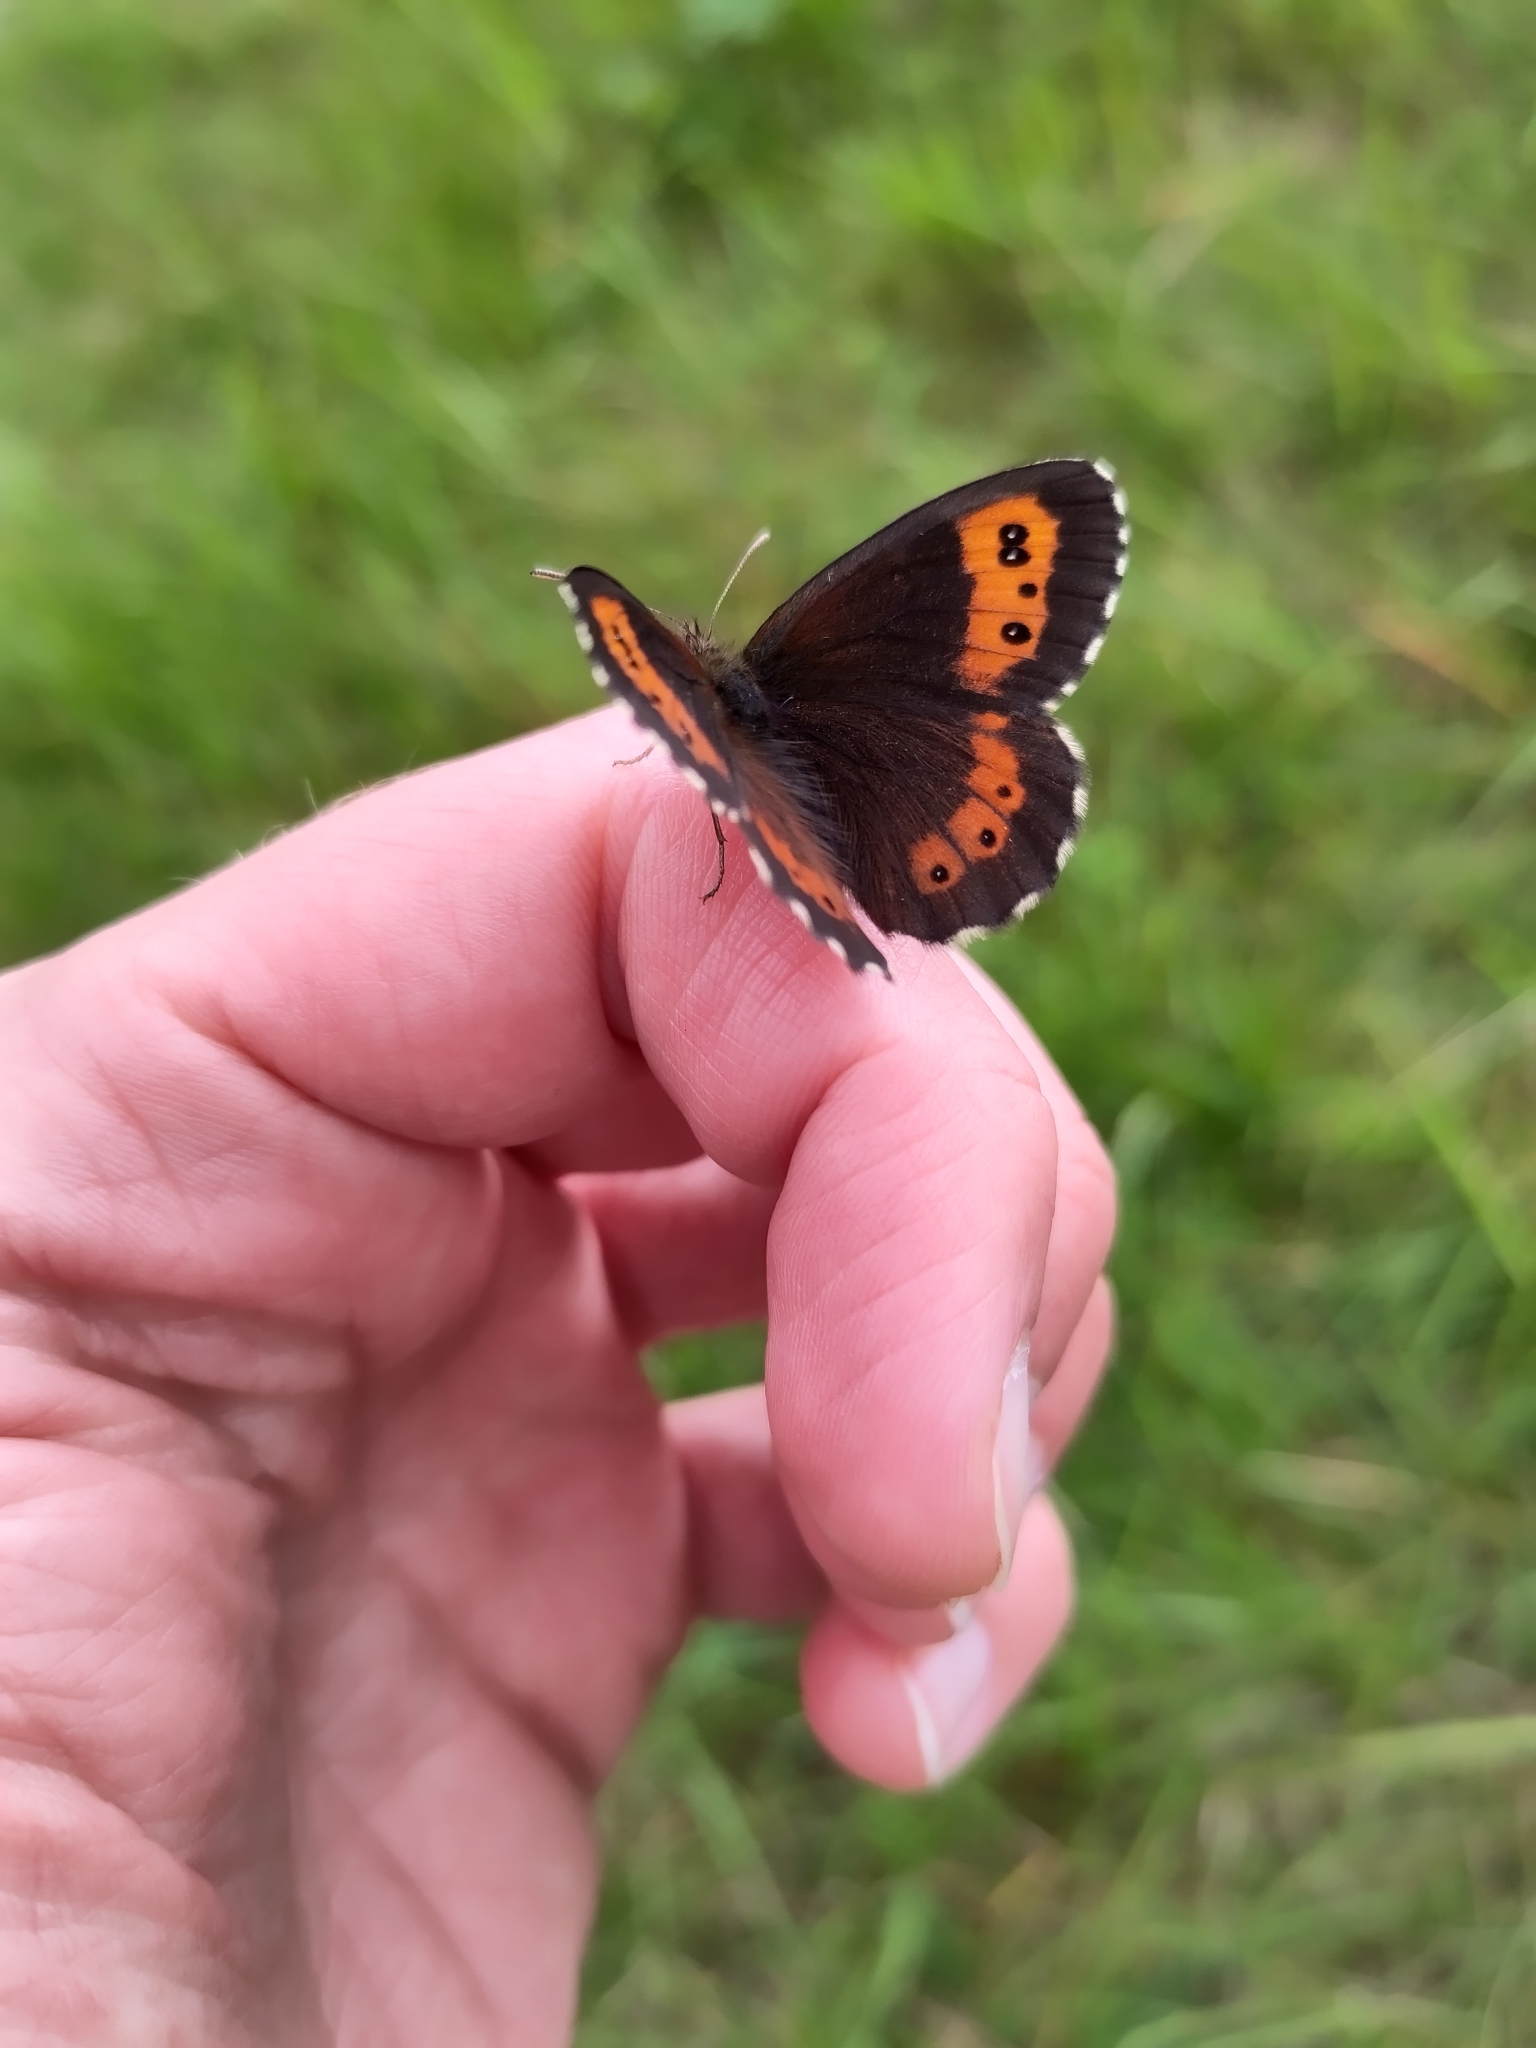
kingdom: Animalia
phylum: Arthropoda
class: Insecta
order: Lepidoptera
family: Nymphalidae
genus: Erebia
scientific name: Erebia ligea
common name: Arran brown
